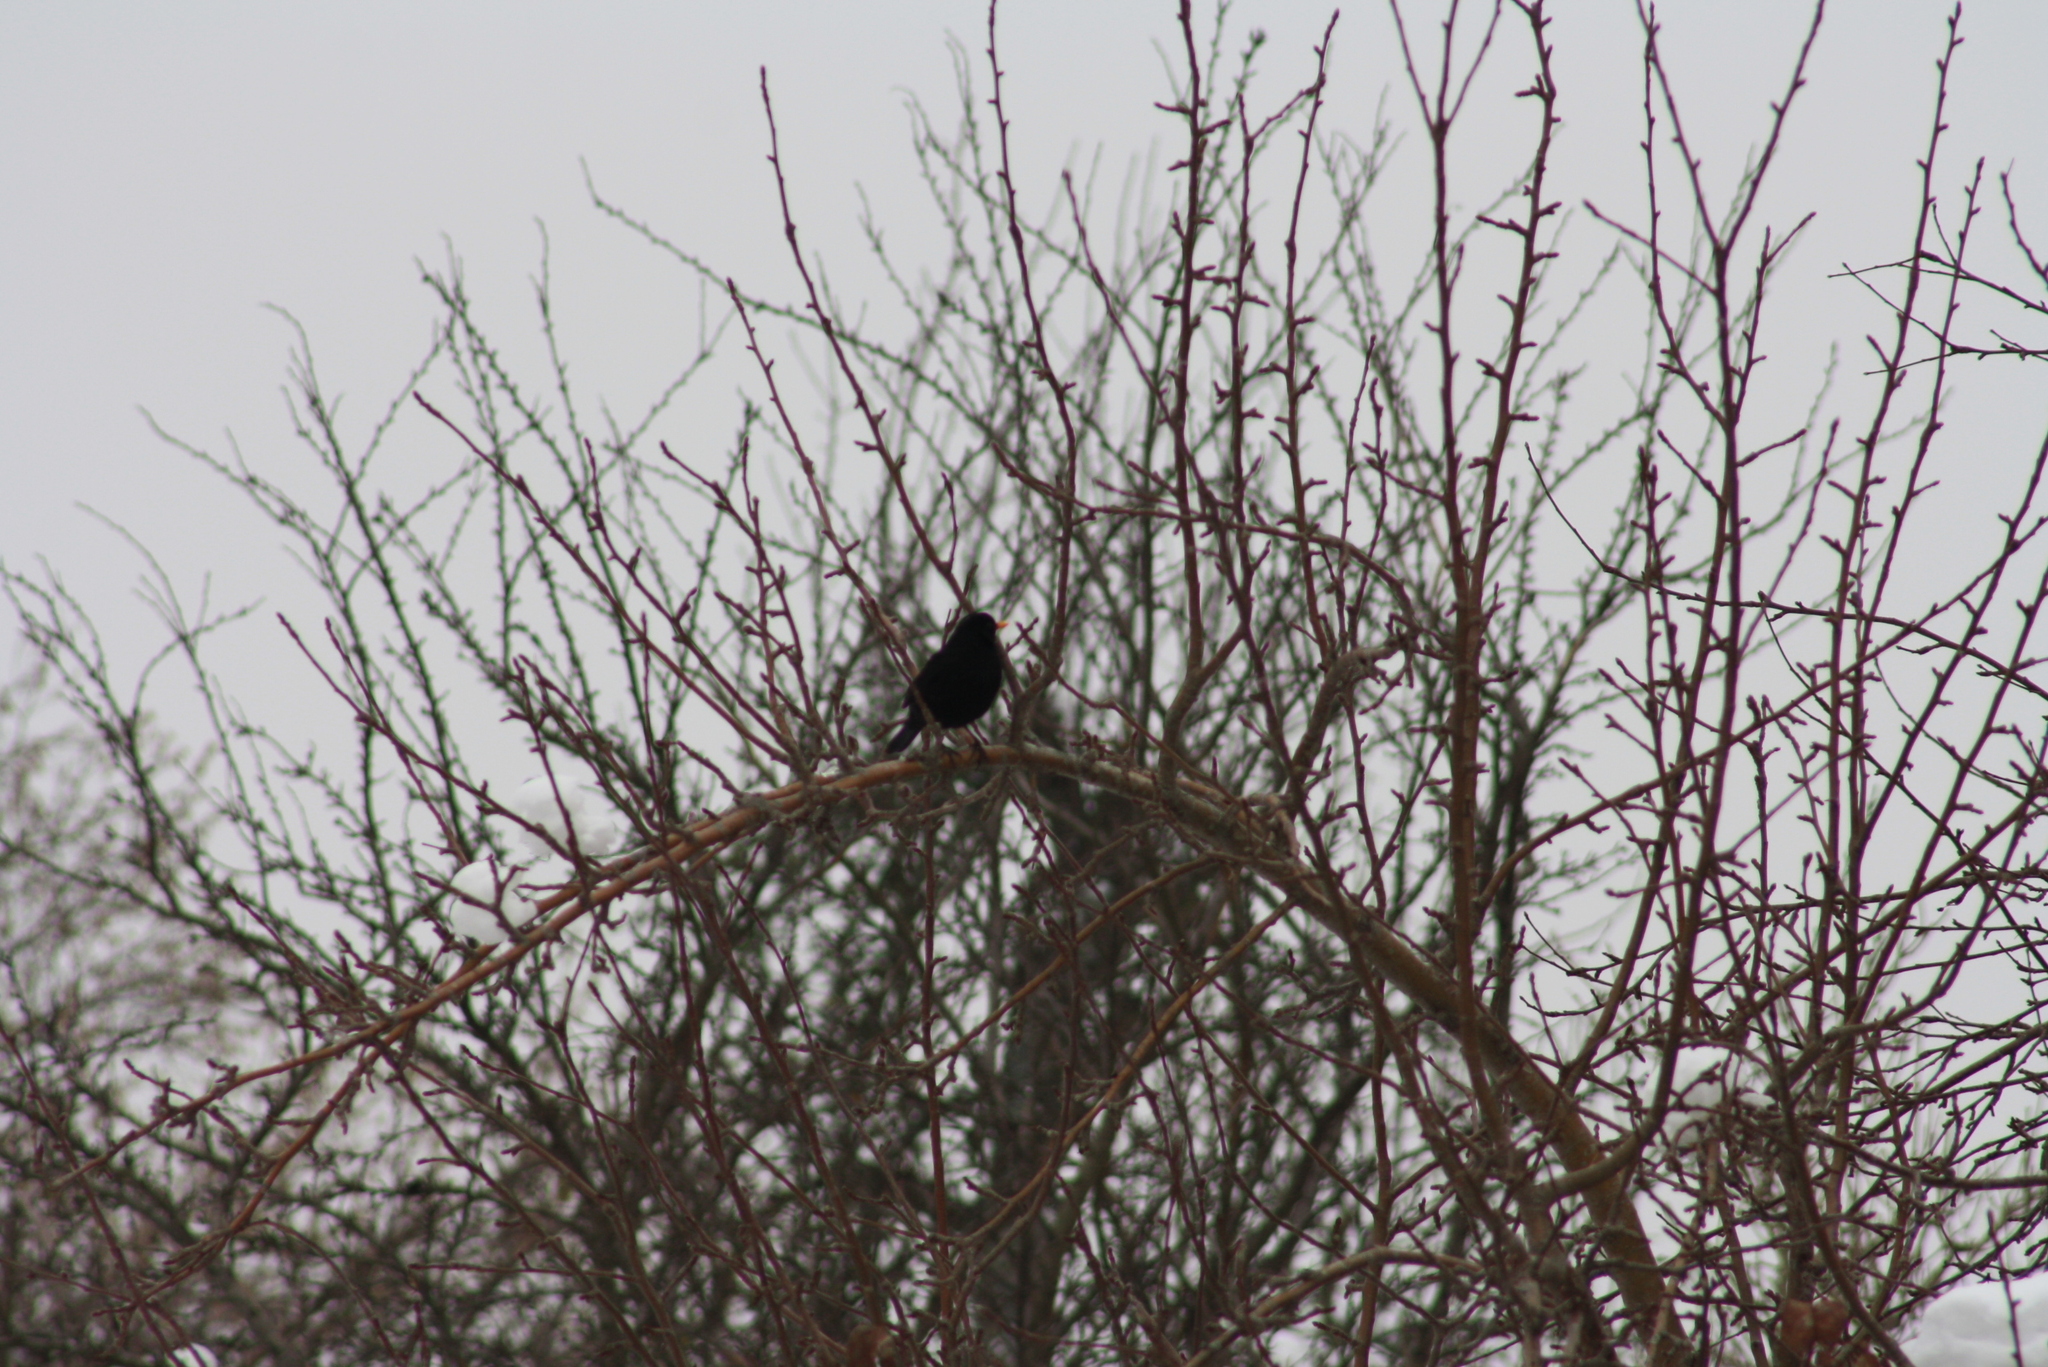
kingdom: Animalia
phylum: Chordata
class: Aves
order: Passeriformes
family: Turdidae
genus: Turdus
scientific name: Turdus merula
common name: Common blackbird
